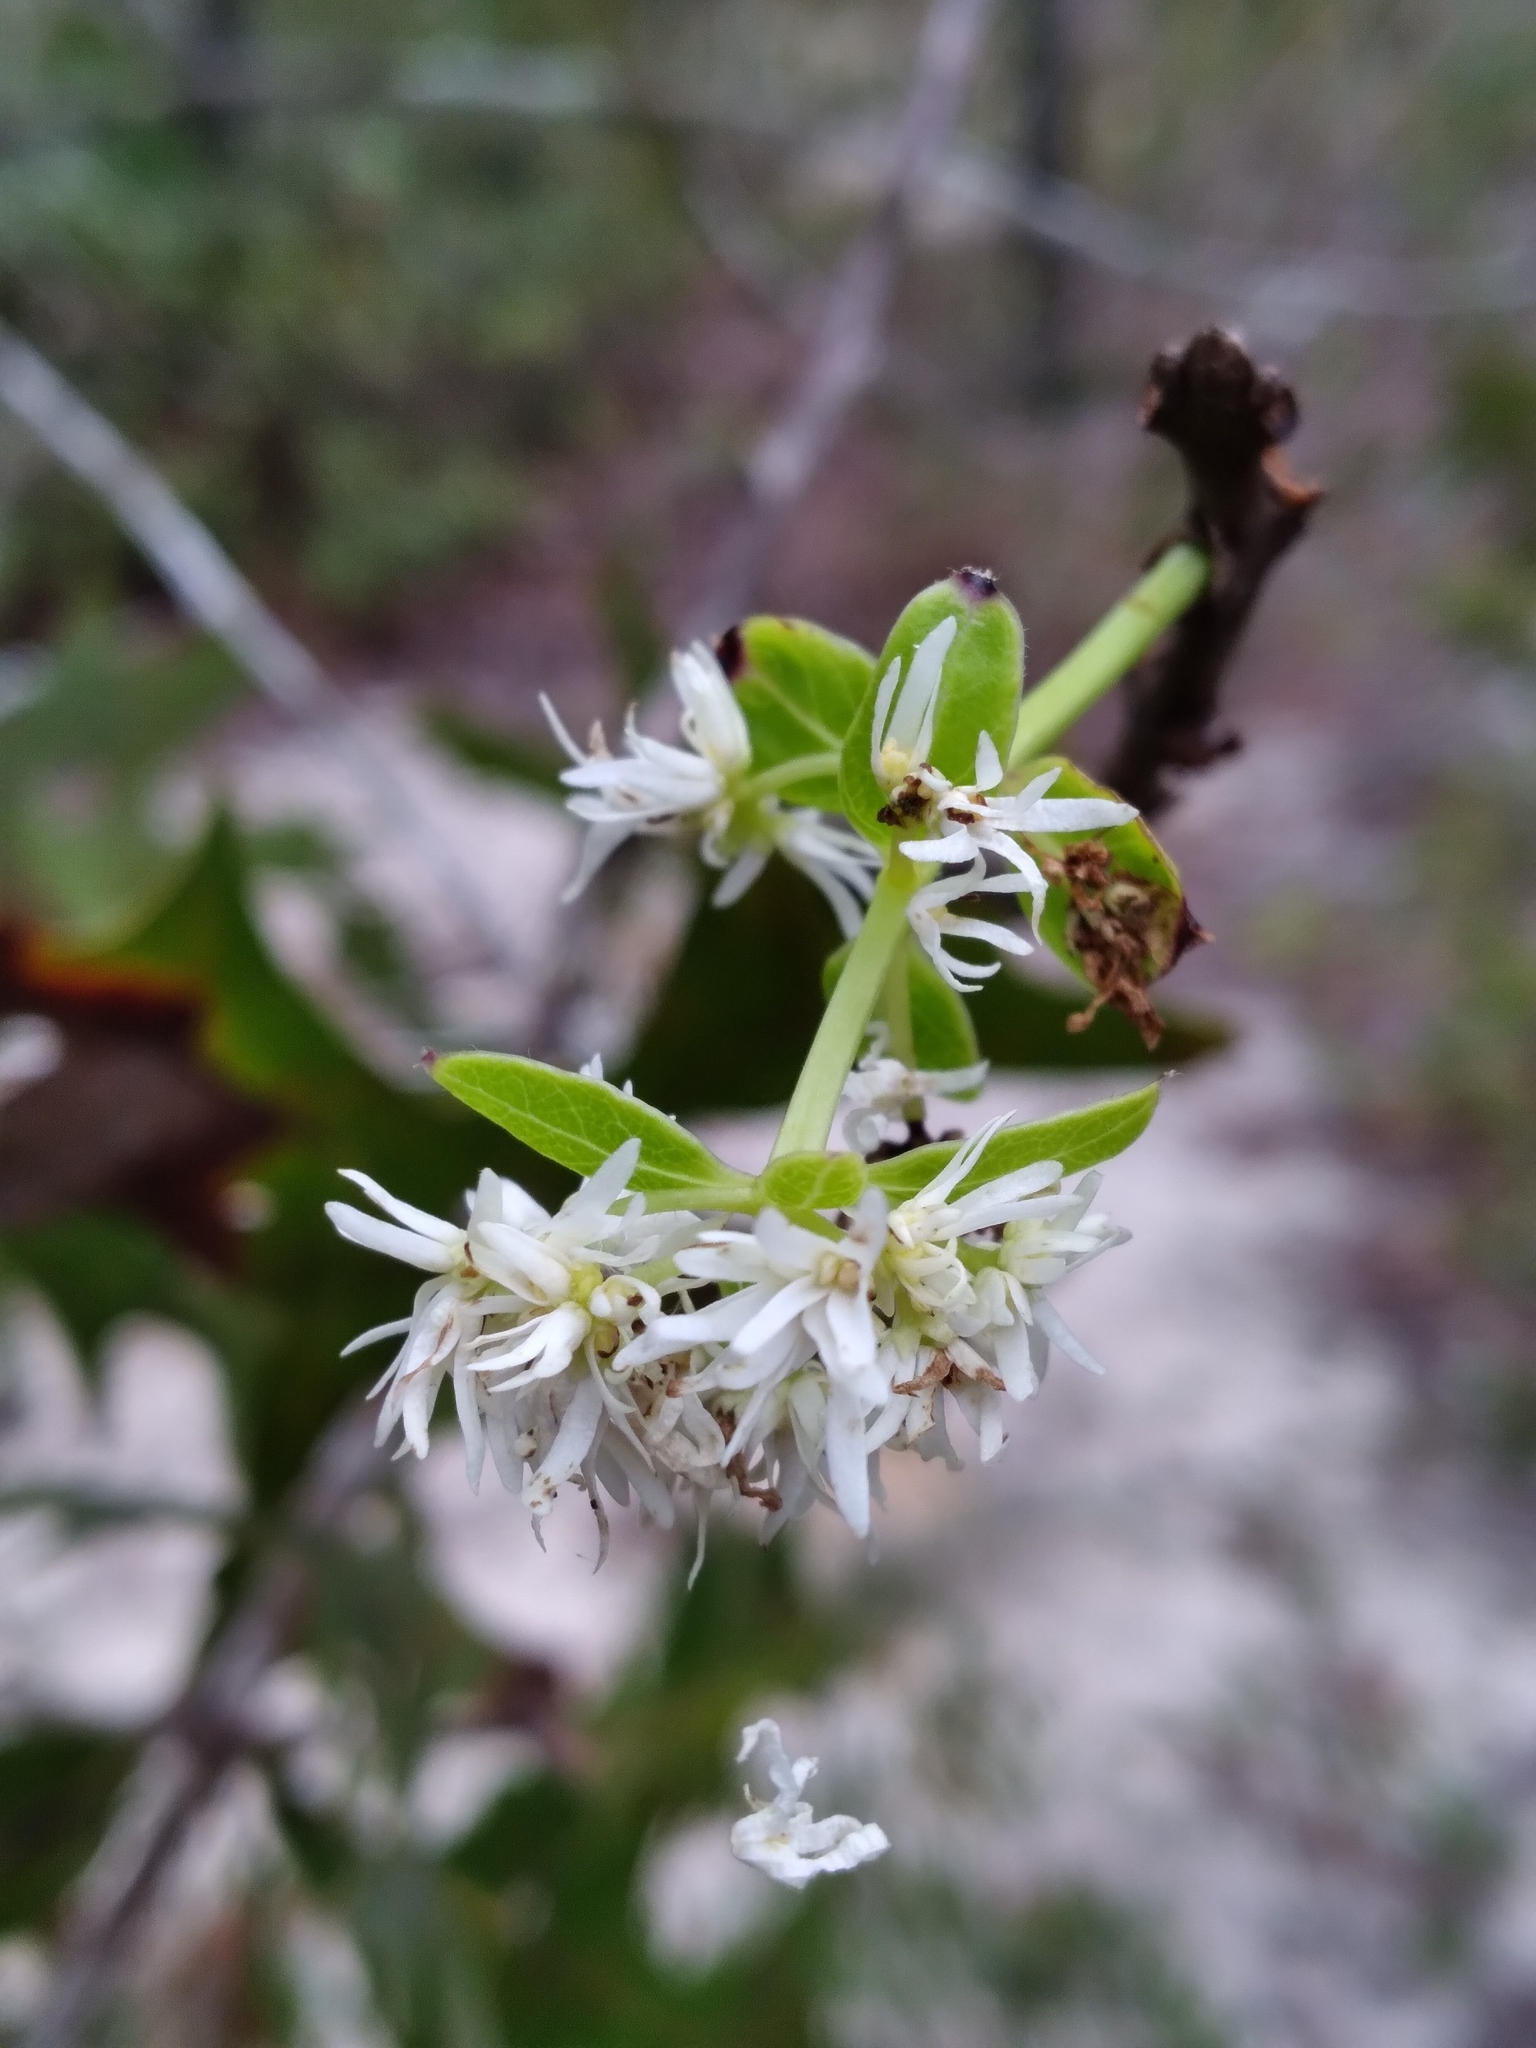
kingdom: Plantae
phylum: Tracheophyta
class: Magnoliopsida
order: Lamiales
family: Oleaceae
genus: Chionanthus
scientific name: Chionanthus pygmaeus
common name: Pygmy fringetree
